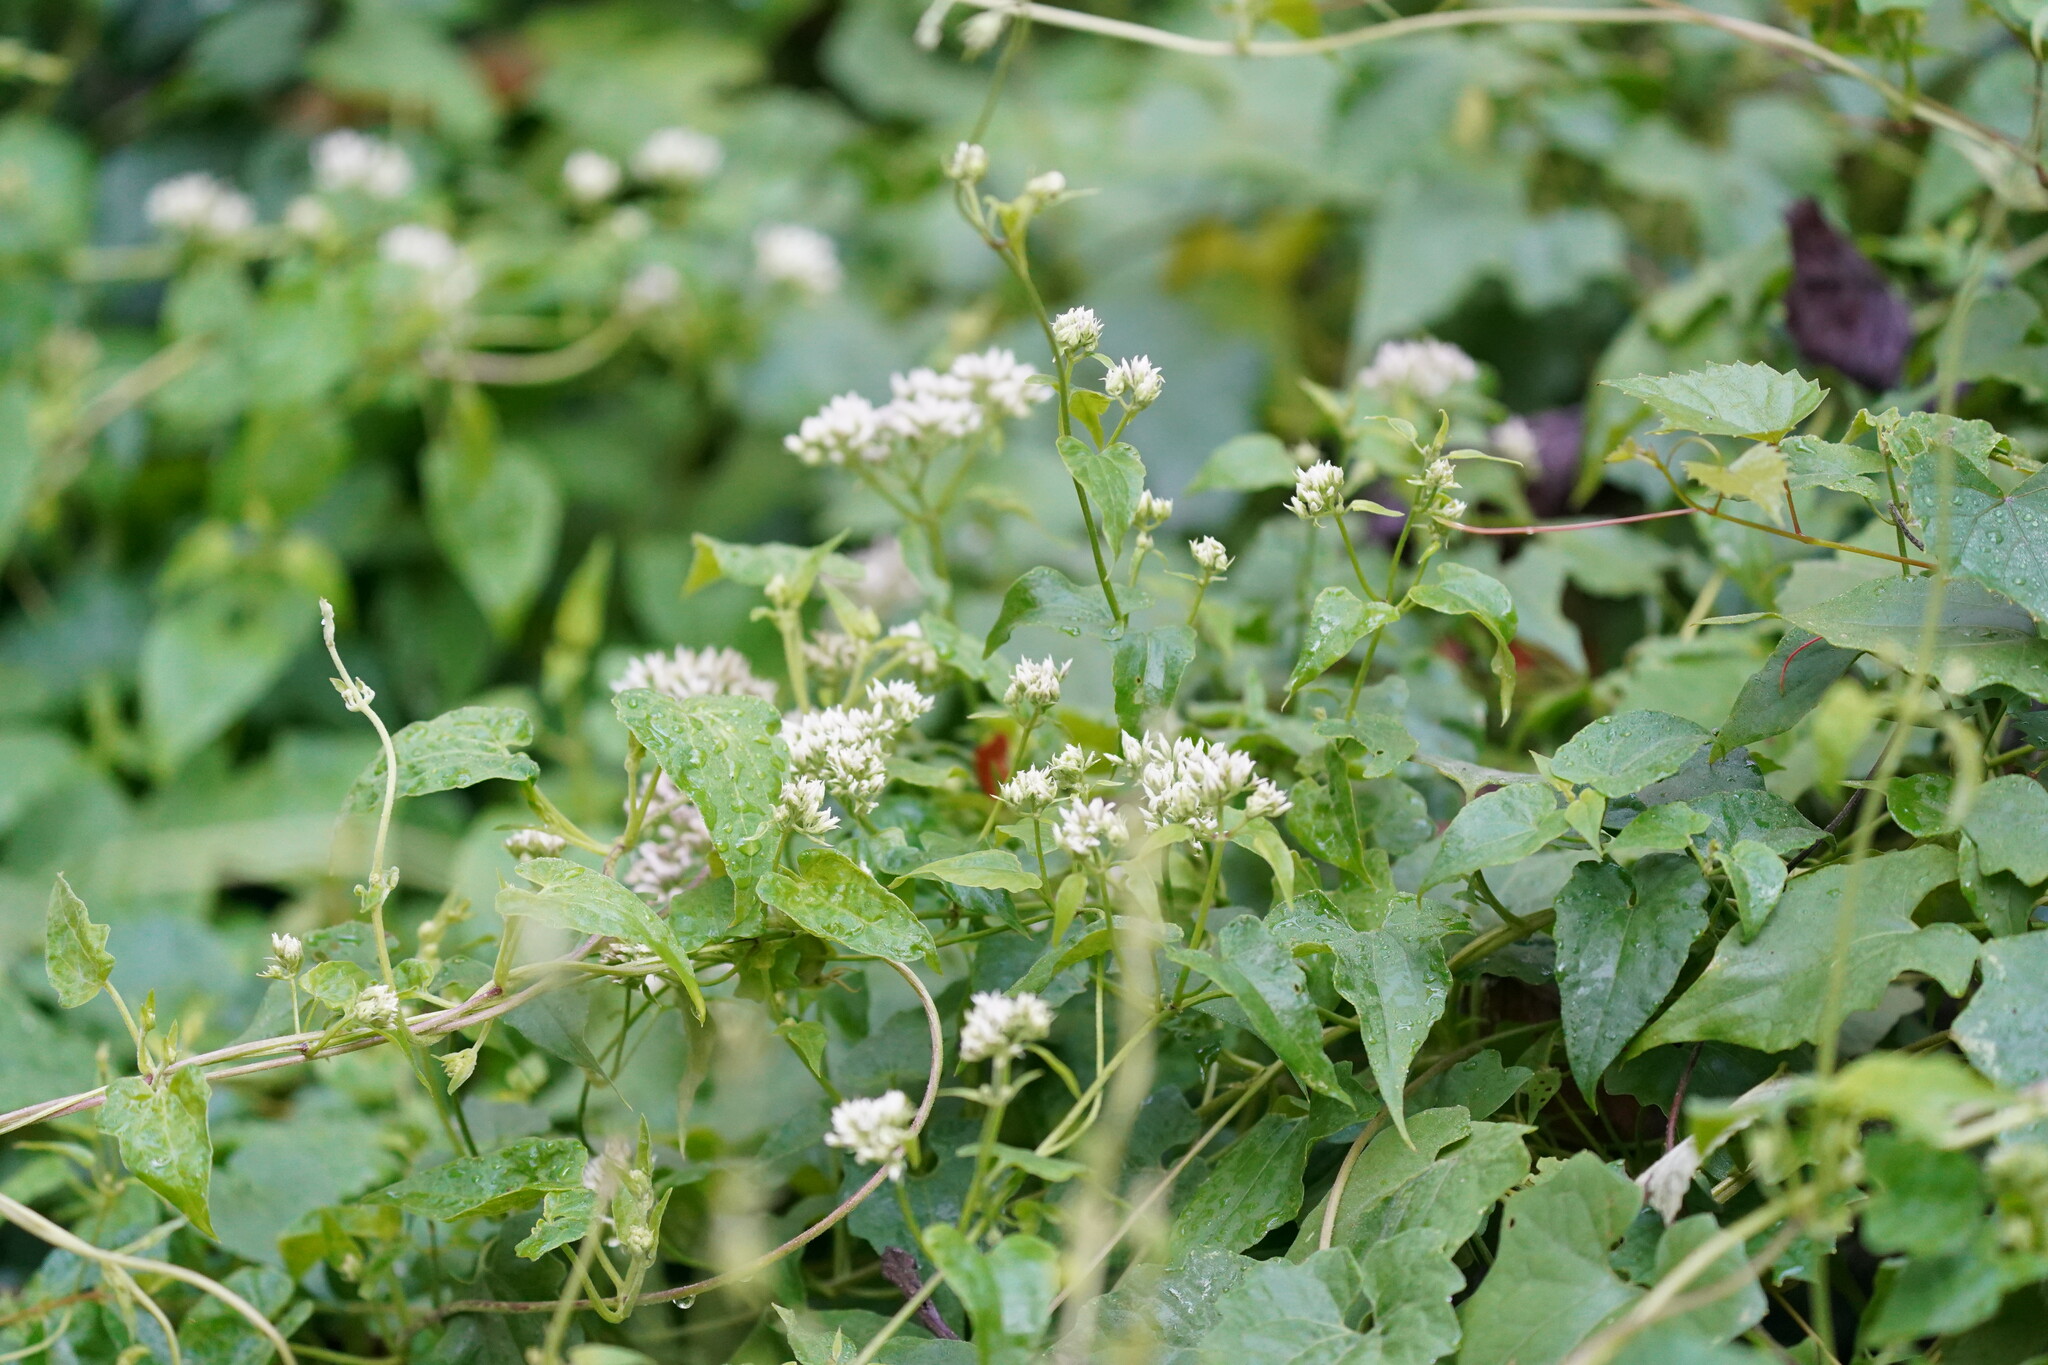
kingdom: Plantae
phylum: Tracheophyta
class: Magnoliopsida
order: Asterales
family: Asteraceae
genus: Mikania
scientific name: Mikania scandens
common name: Climbing hempvine
